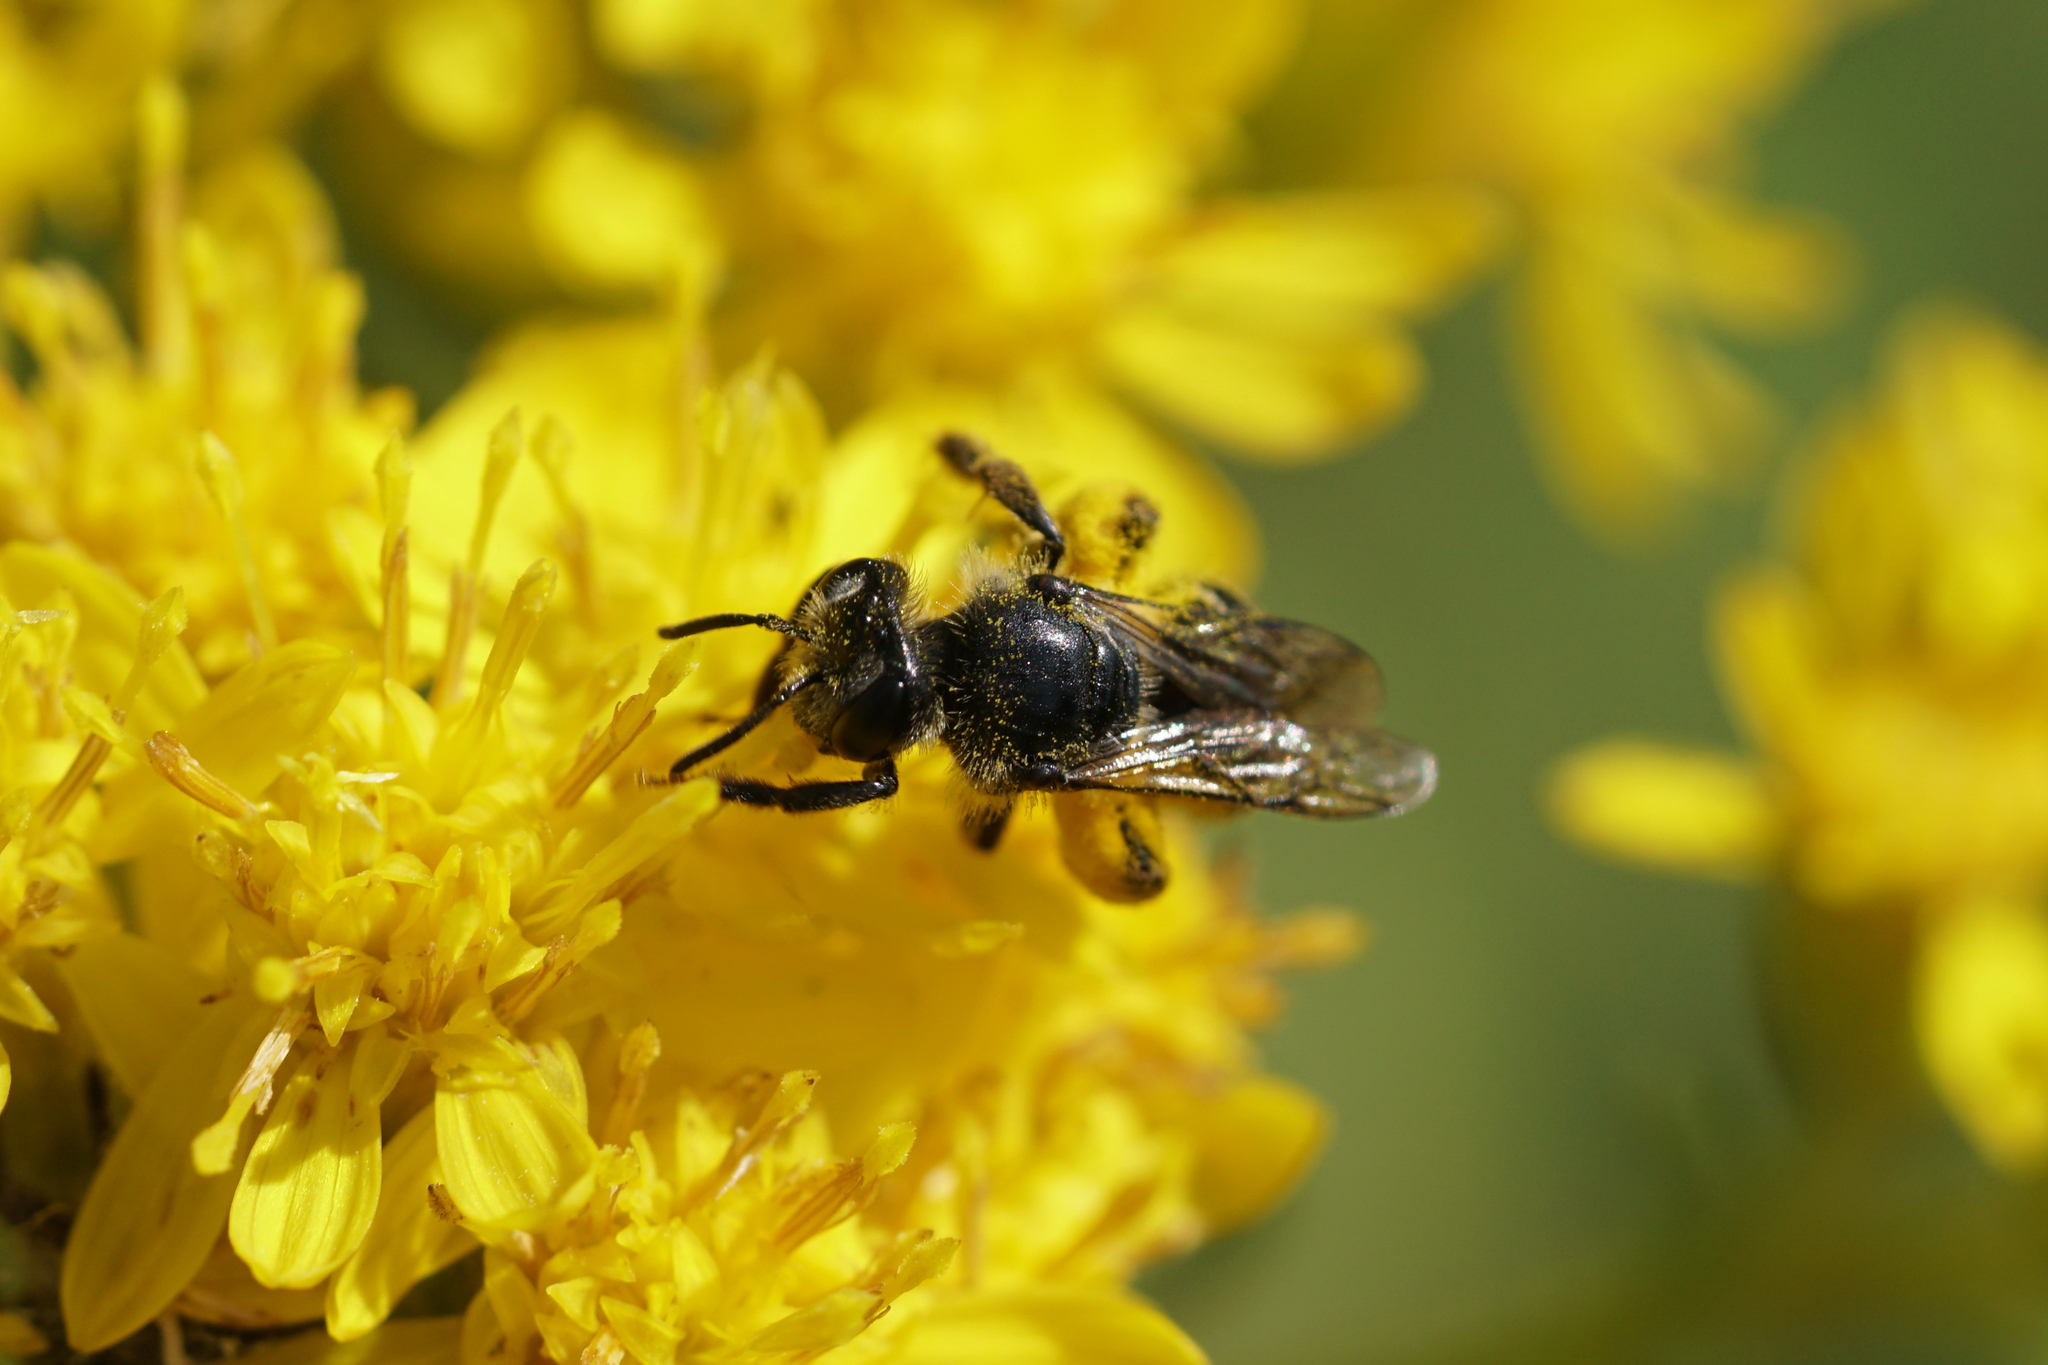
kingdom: Animalia
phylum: Arthropoda
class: Insecta
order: Hymenoptera
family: Andrenidae
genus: Andrena
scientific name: Andrena
